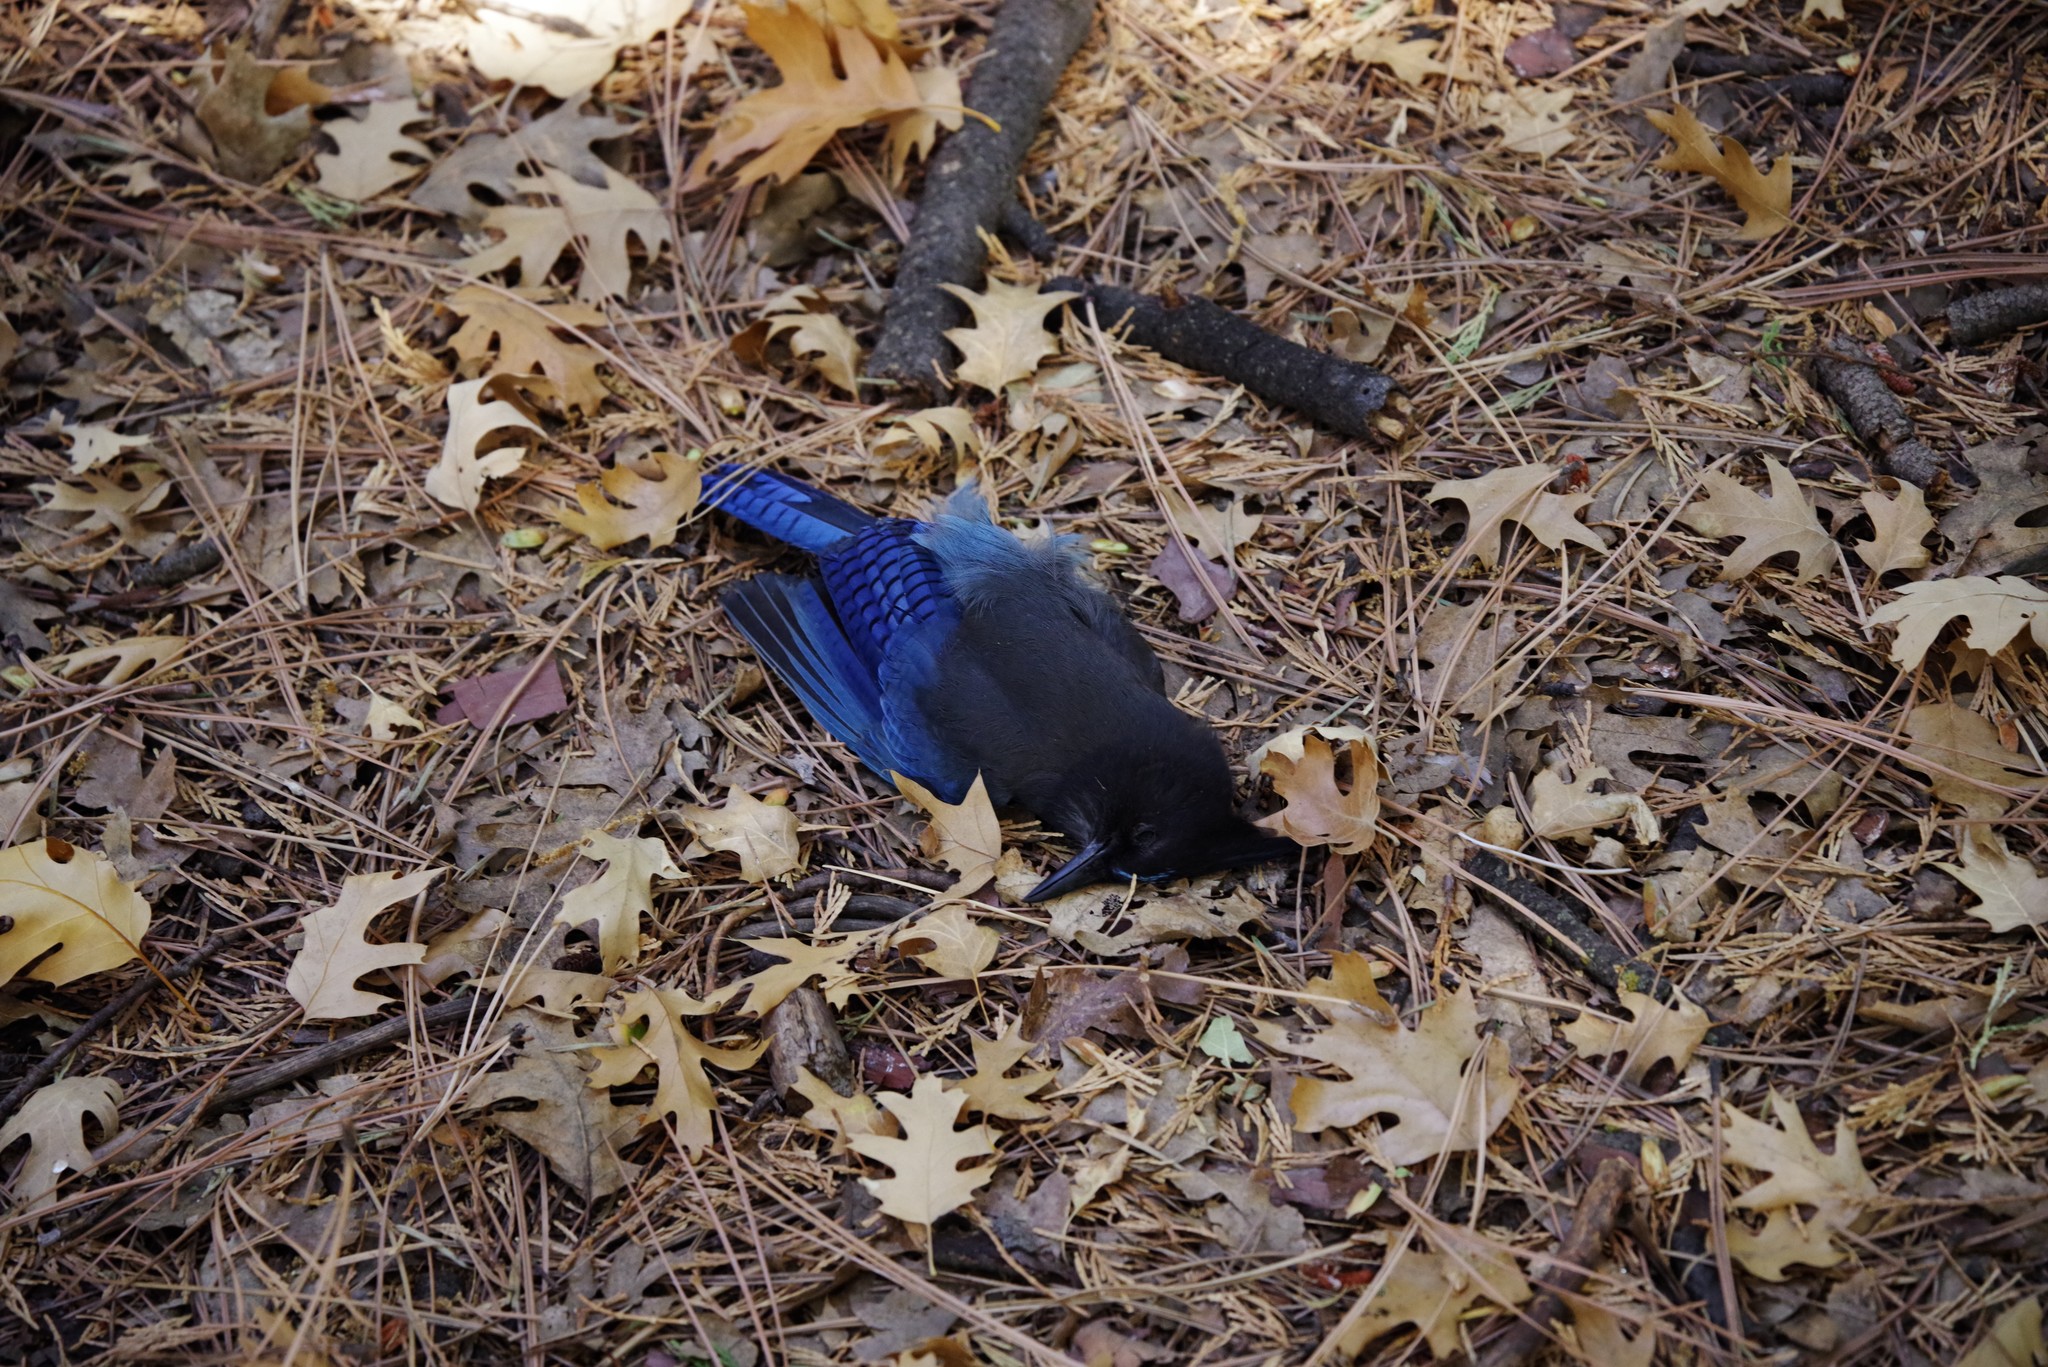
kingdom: Animalia
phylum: Chordata
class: Aves
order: Passeriformes
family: Corvidae
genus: Cyanocitta
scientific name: Cyanocitta stelleri
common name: Steller's jay
